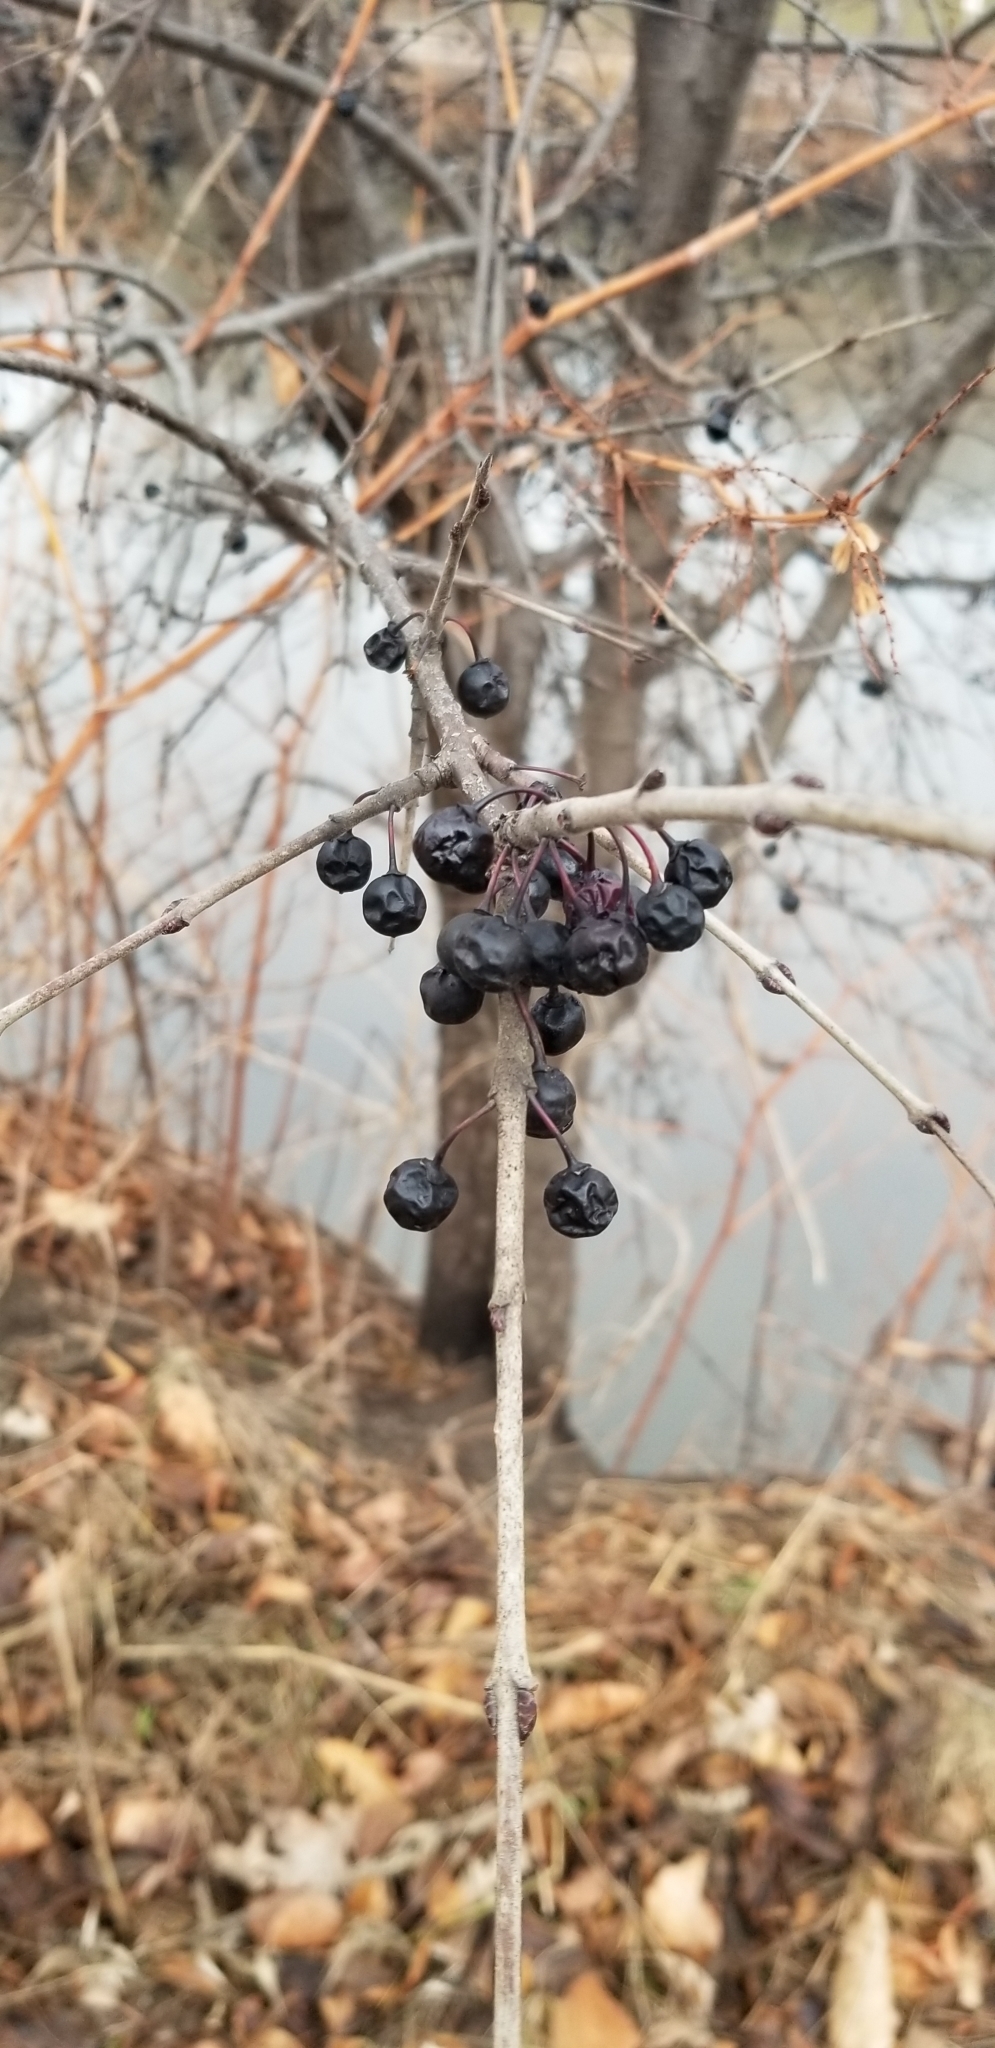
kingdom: Plantae
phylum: Tracheophyta
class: Magnoliopsida
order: Rosales
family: Rhamnaceae
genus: Rhamnus
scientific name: Rhamnus cathartica
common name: Common buckthorn
